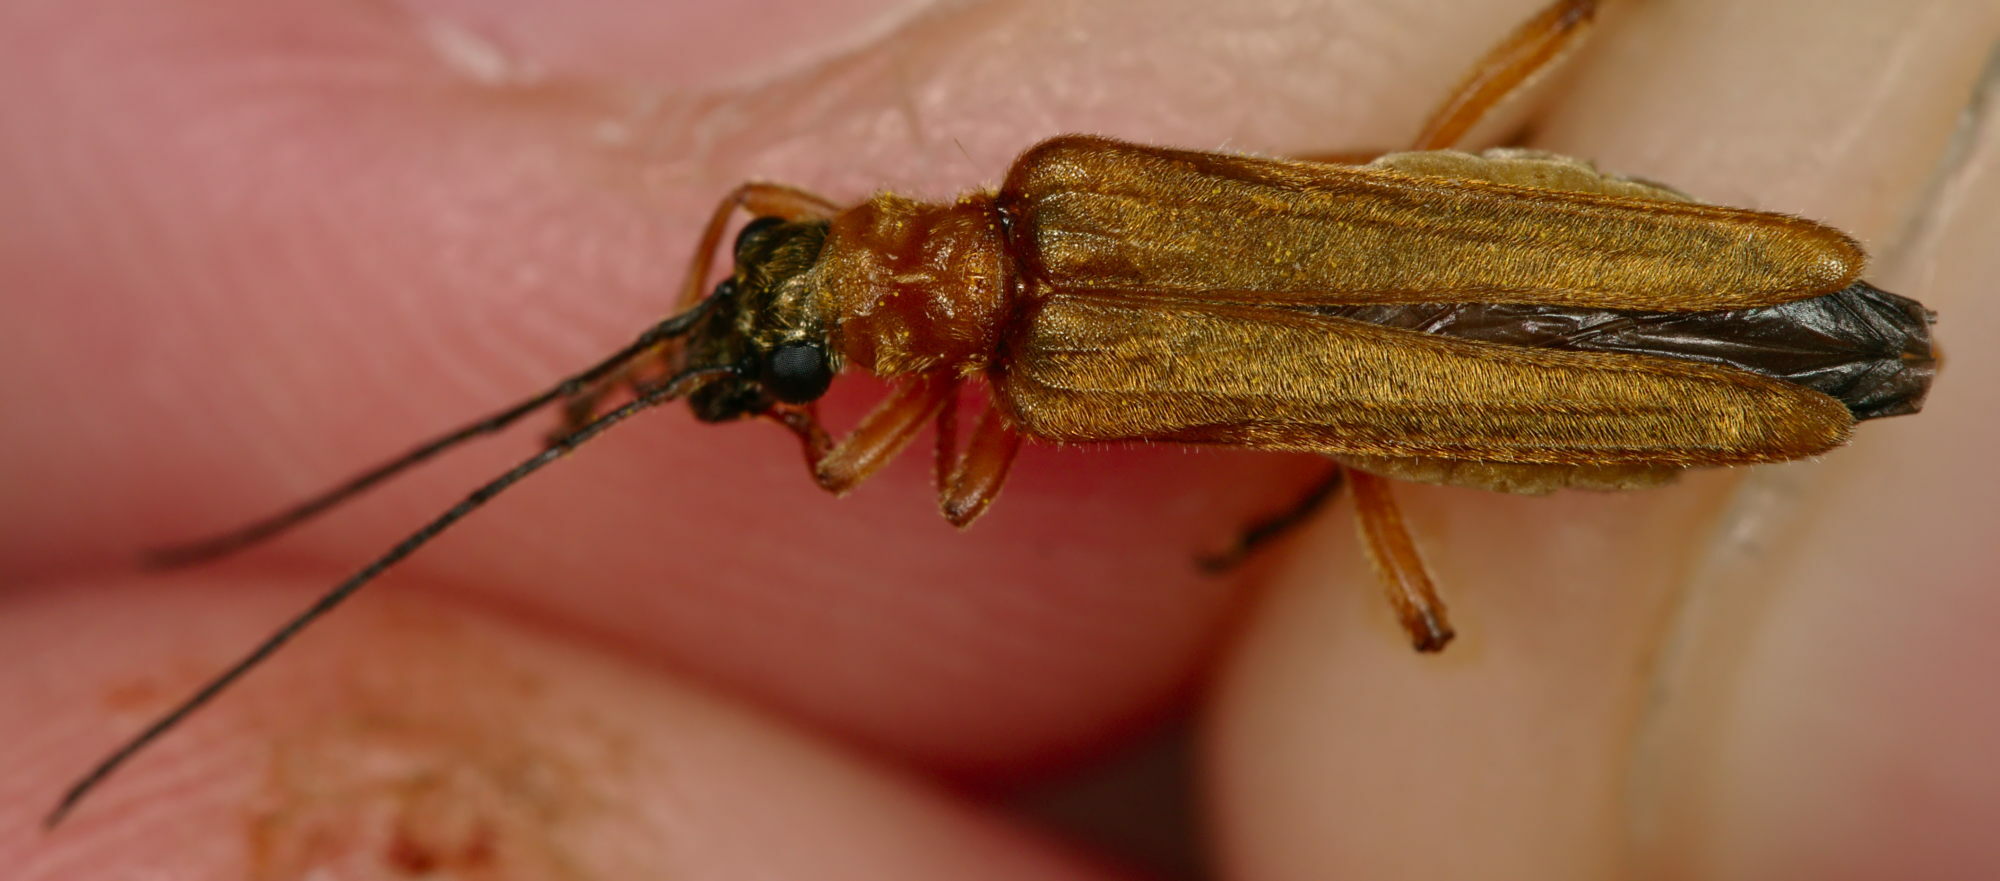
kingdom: Animalia
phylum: Arthropoda
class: Insecta
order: Coleoptera
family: Oedemeridae
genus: Oedemera
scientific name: Oedemera podagrariae
